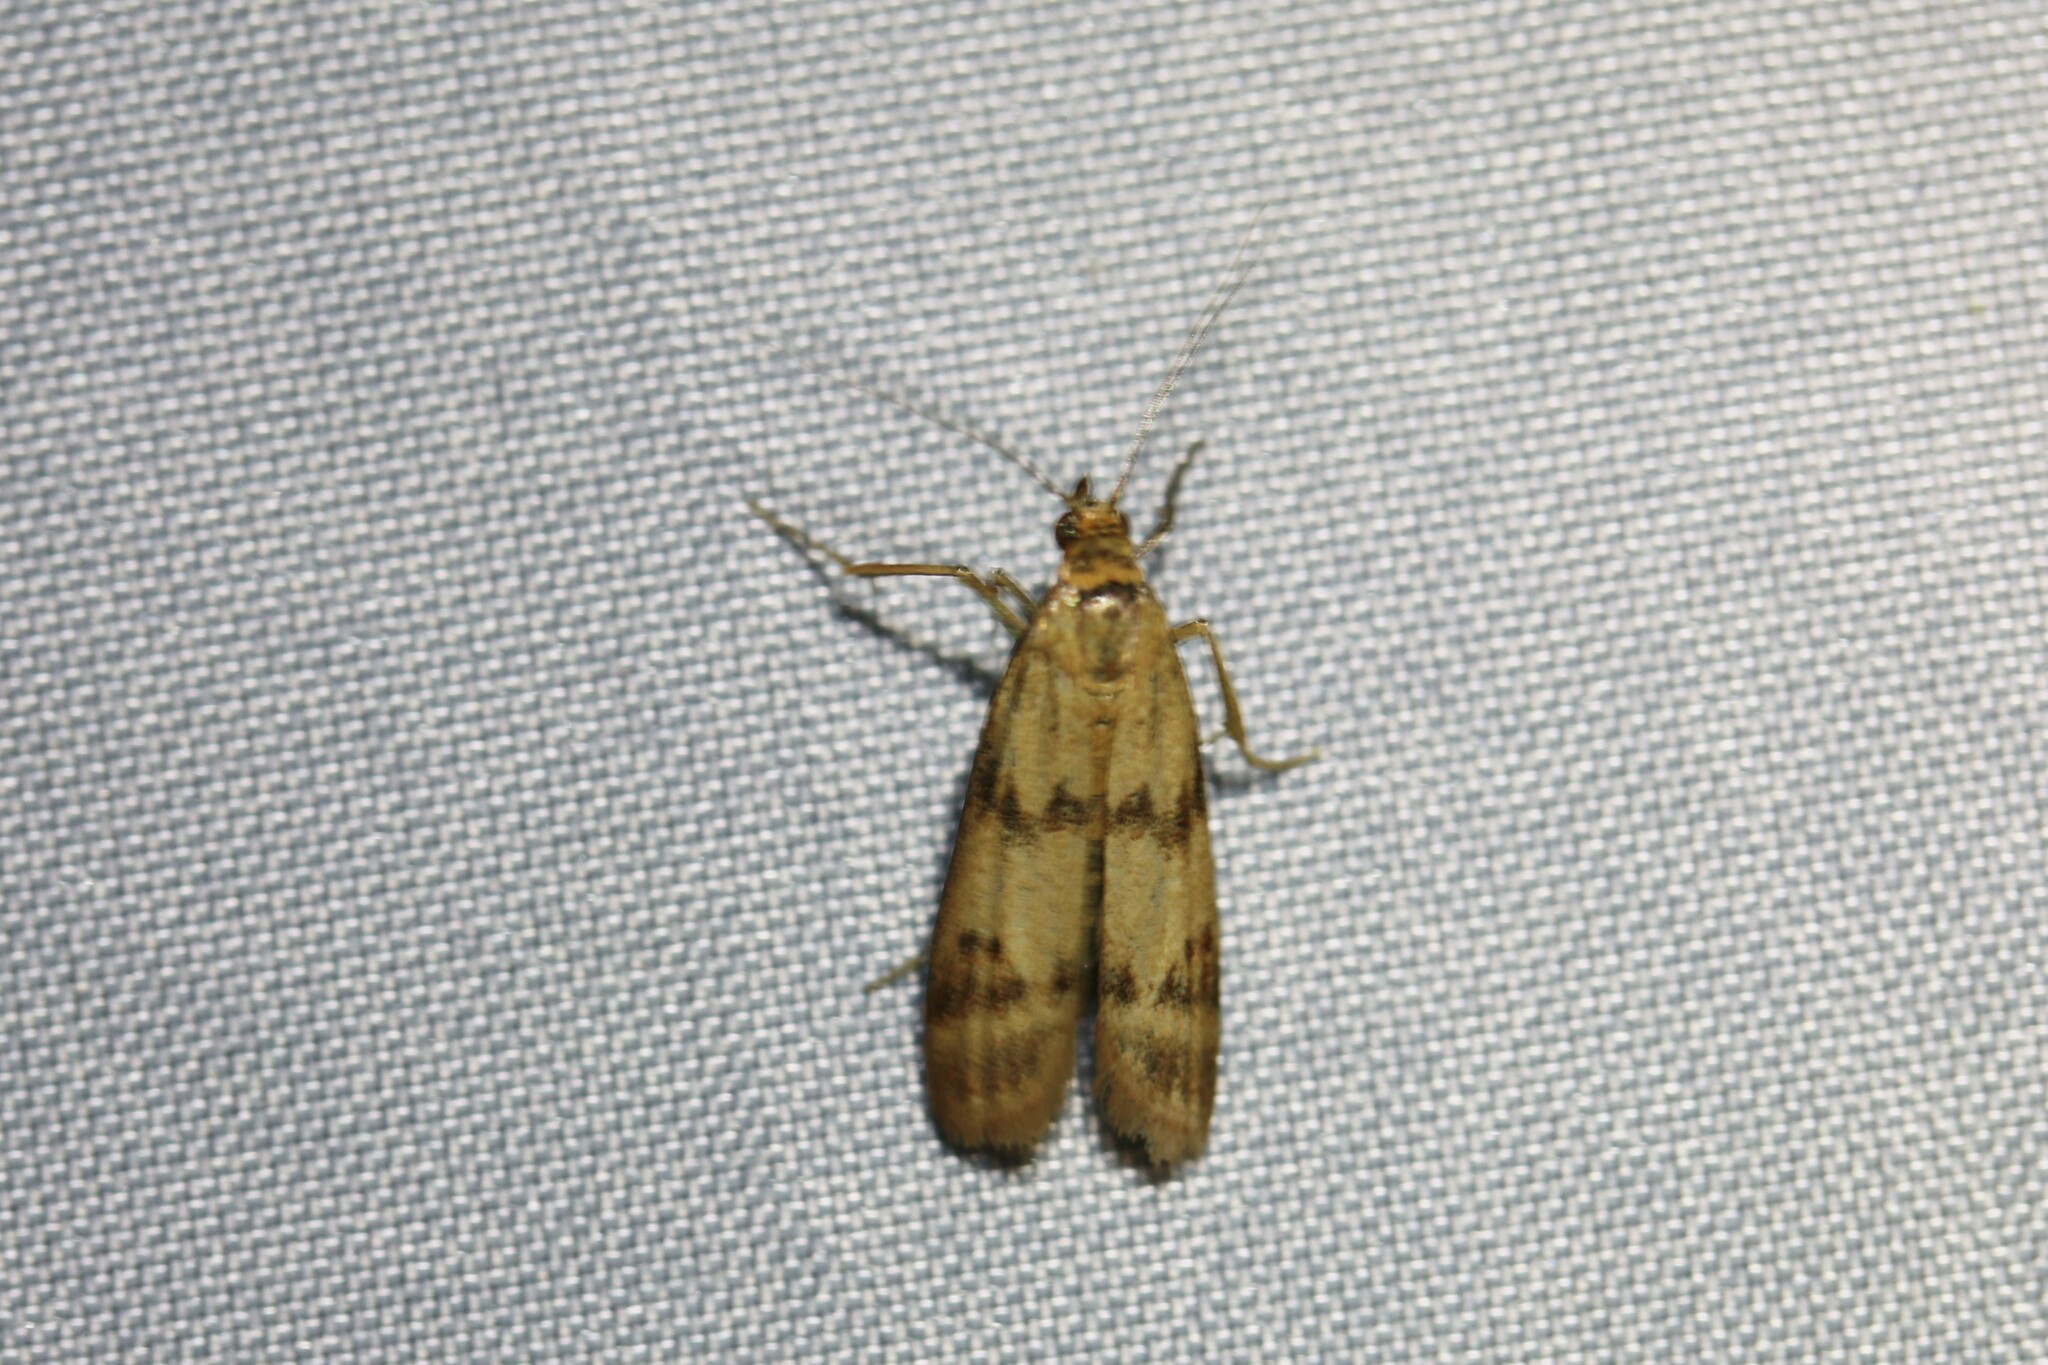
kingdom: Animalia
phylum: Arthropoda
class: Insecta
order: Lepidoptera
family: Pyralidae
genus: Homoeosoma
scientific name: Homoeosoma sinuella
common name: Twin-barred knot-horn
